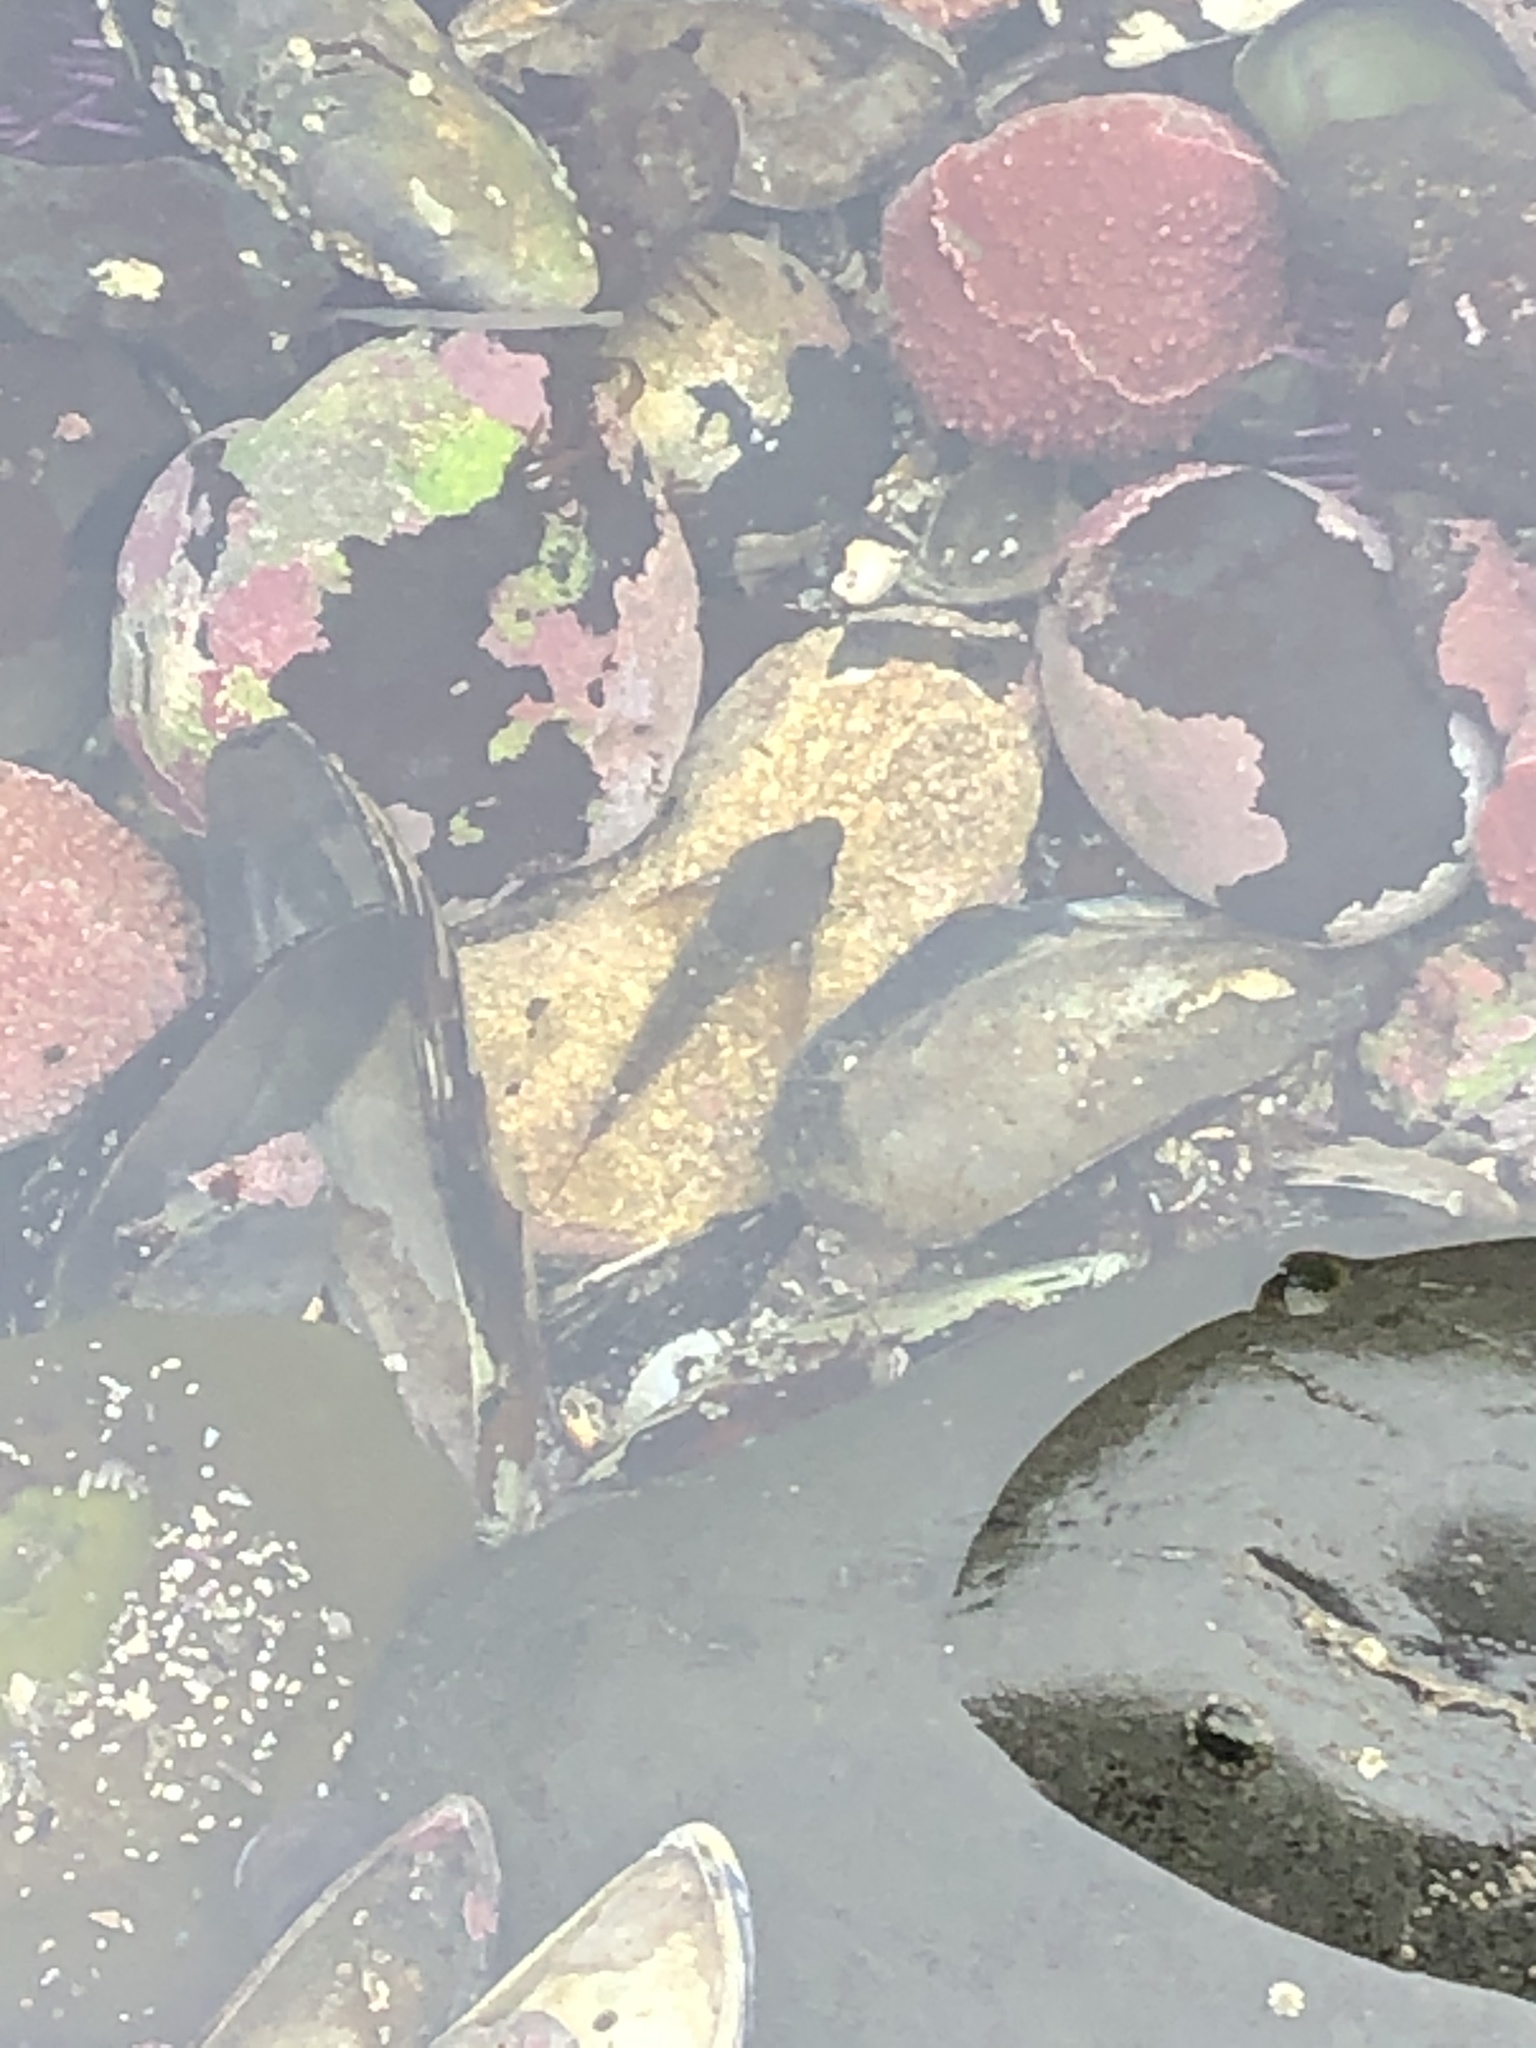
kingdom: Animalia
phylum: Chordata
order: Scorpaeniformes
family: Cottidae
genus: Oligocottus
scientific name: Oligocottus maculosus
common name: Tidepool sculpin
